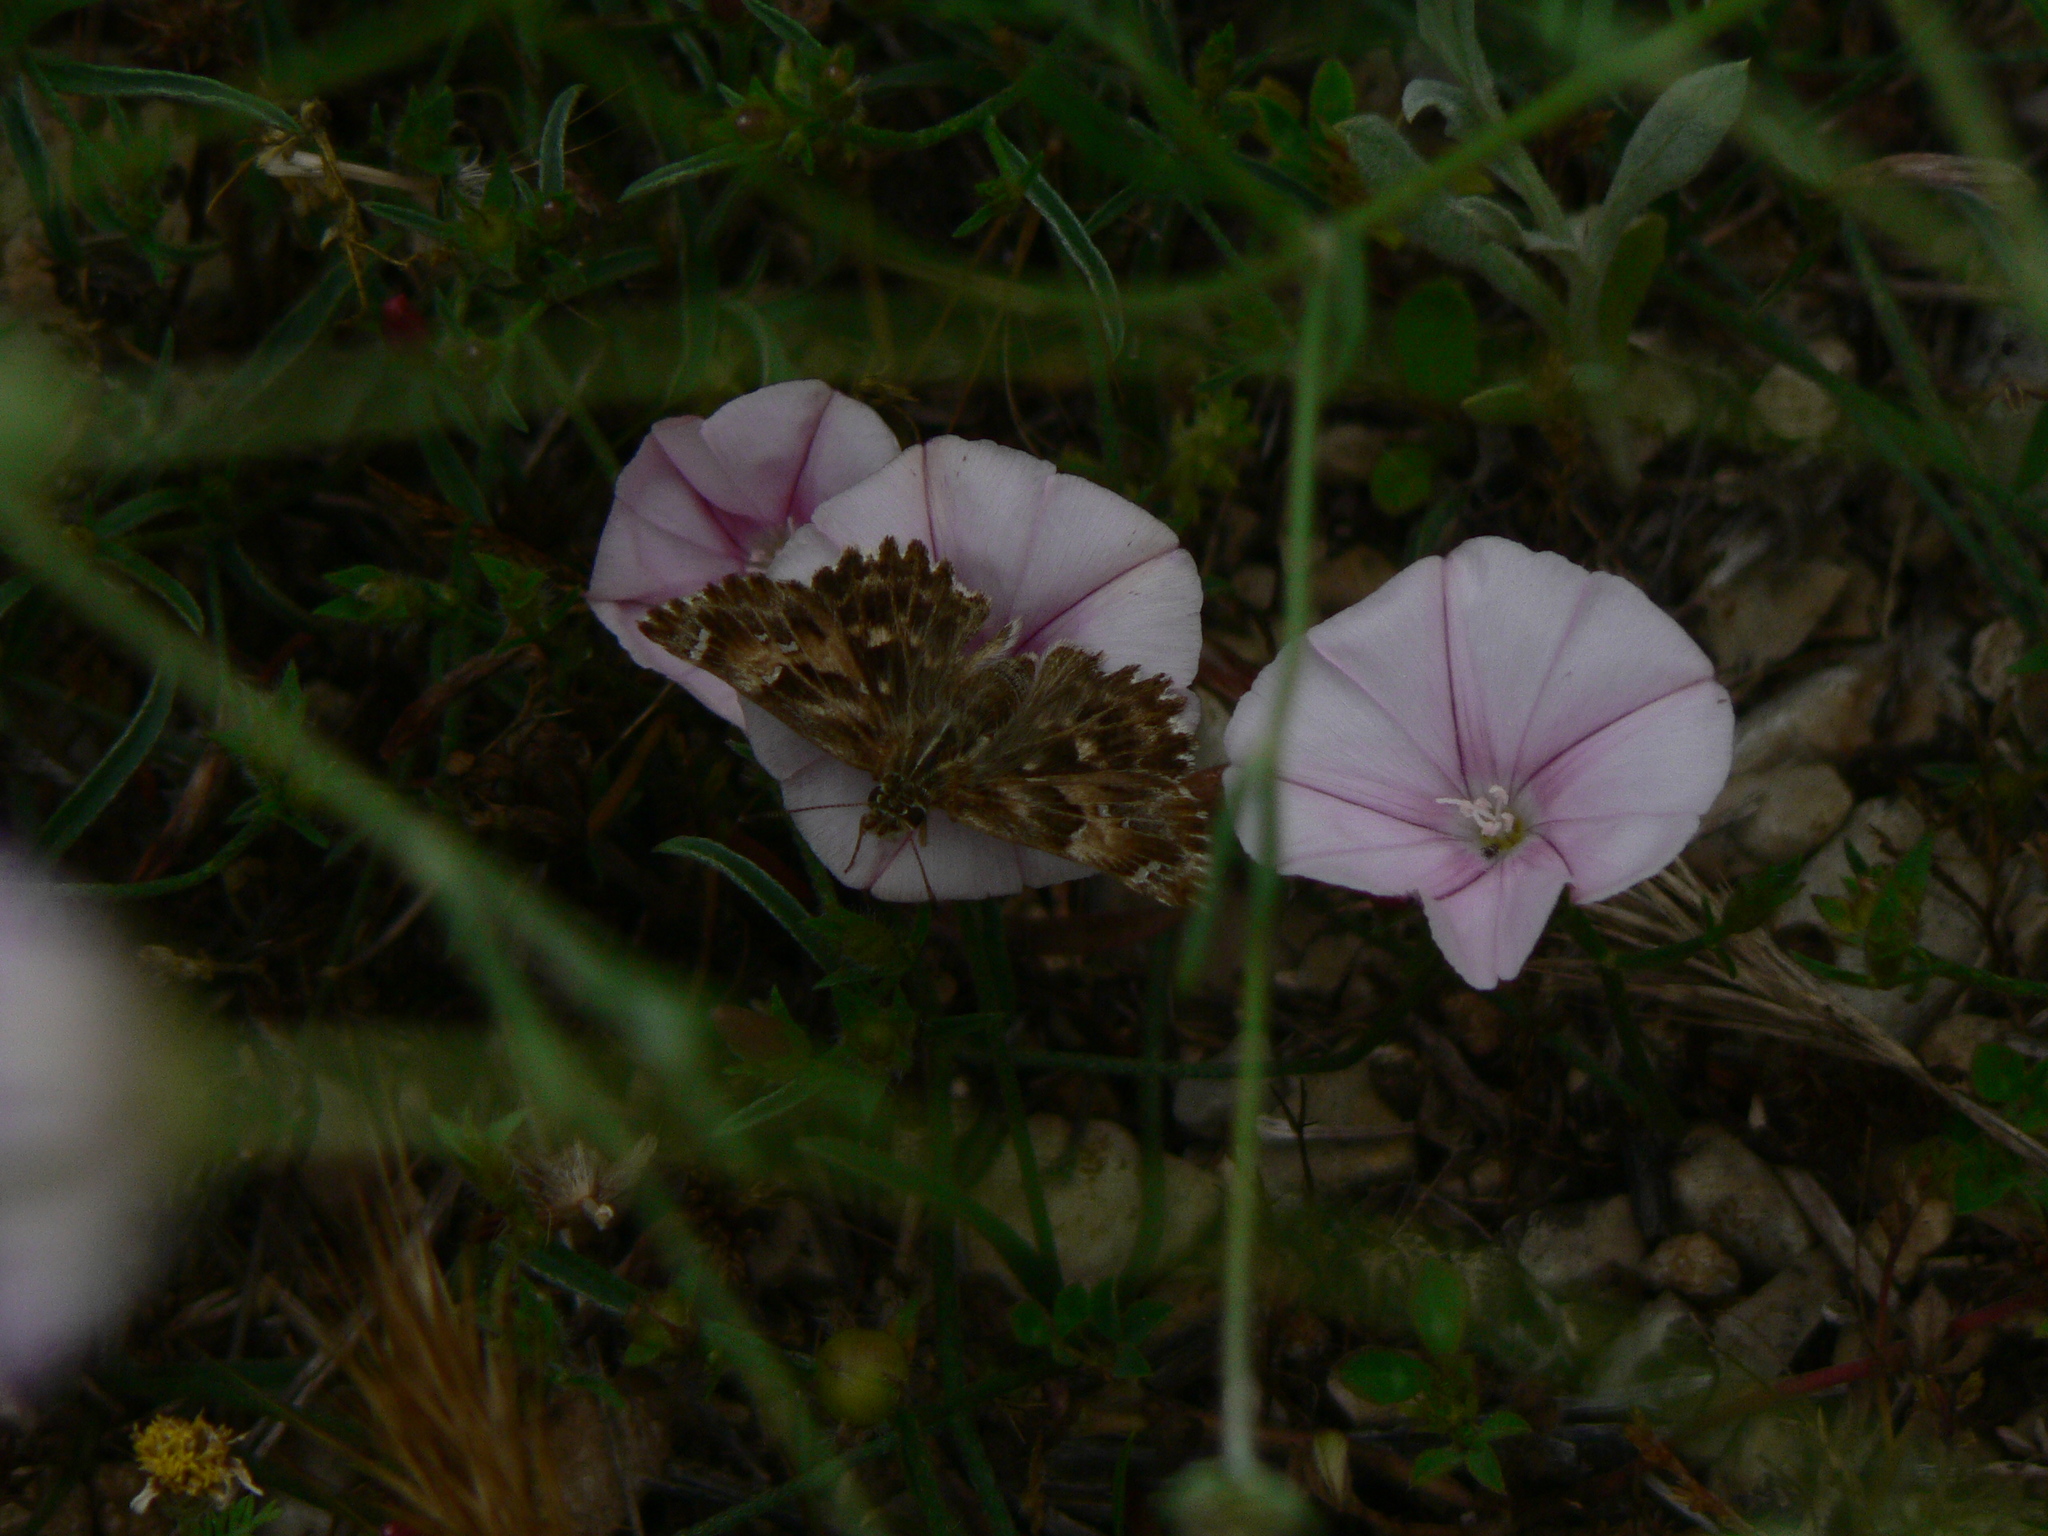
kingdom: Animalia
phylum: Arthropoda
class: Insecta
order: Lepidoptera
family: Hesperiidae
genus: Carcharodus
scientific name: Carcharodus alceae
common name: Mallow skipper
